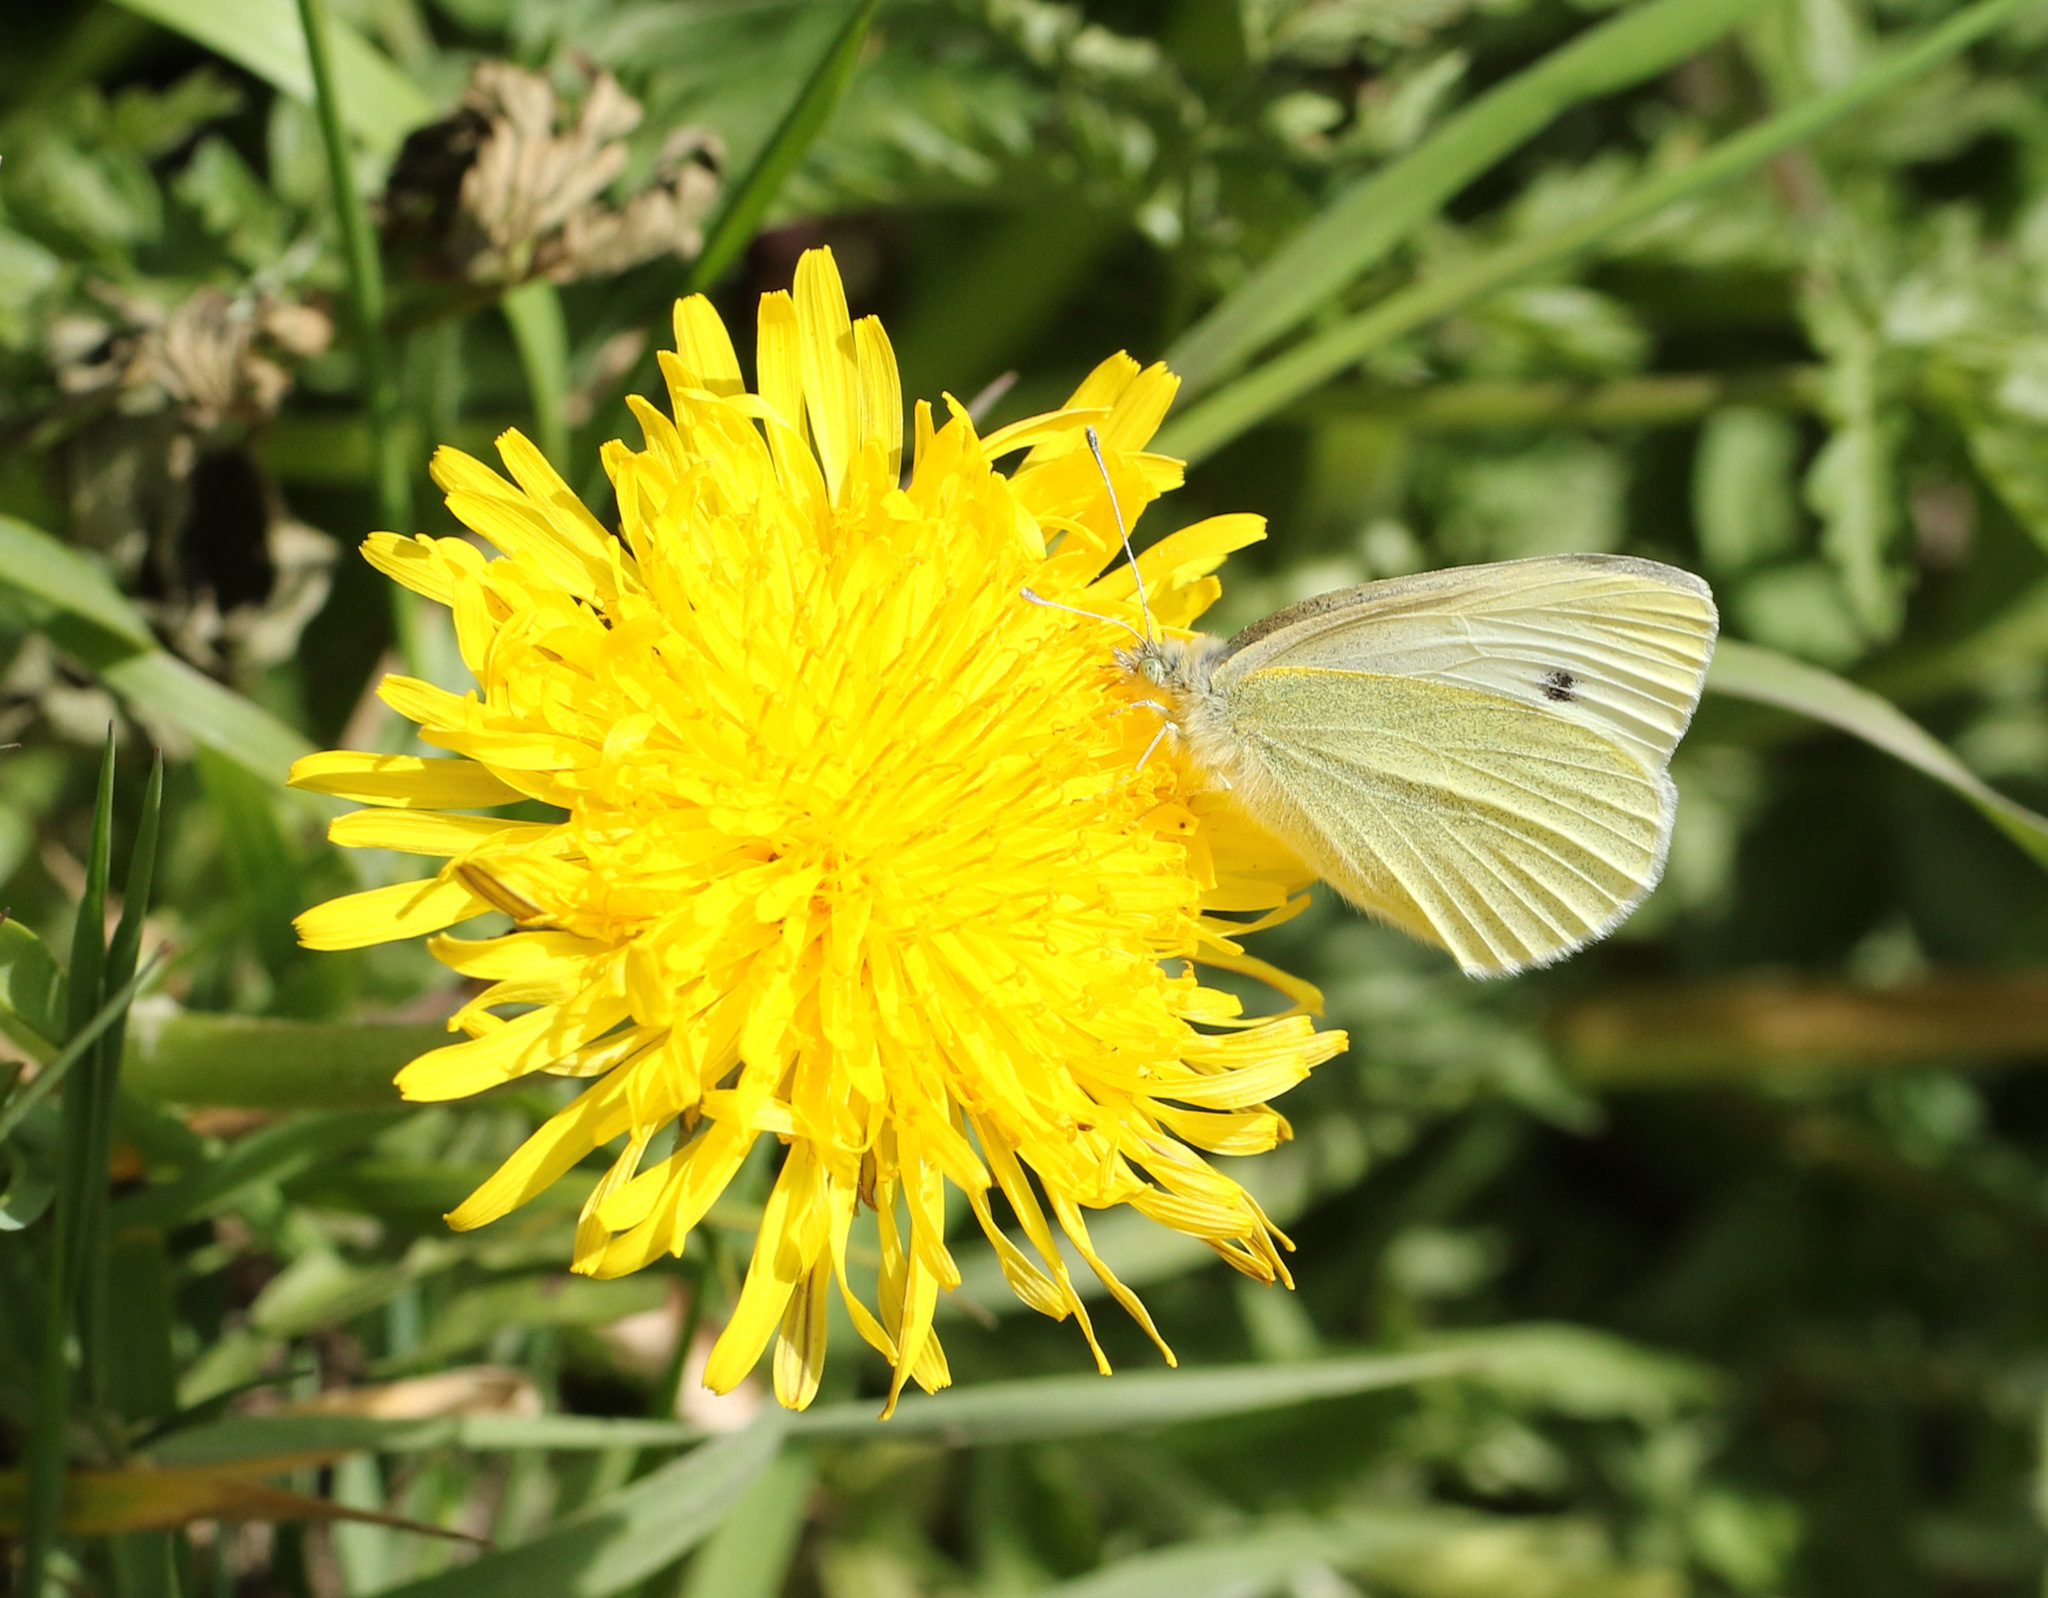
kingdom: Animalia
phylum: Arthropoda
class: Insecta
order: Lepidoptera
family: Pieridae
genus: Pieris
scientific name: Pieris rapae
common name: Small white
